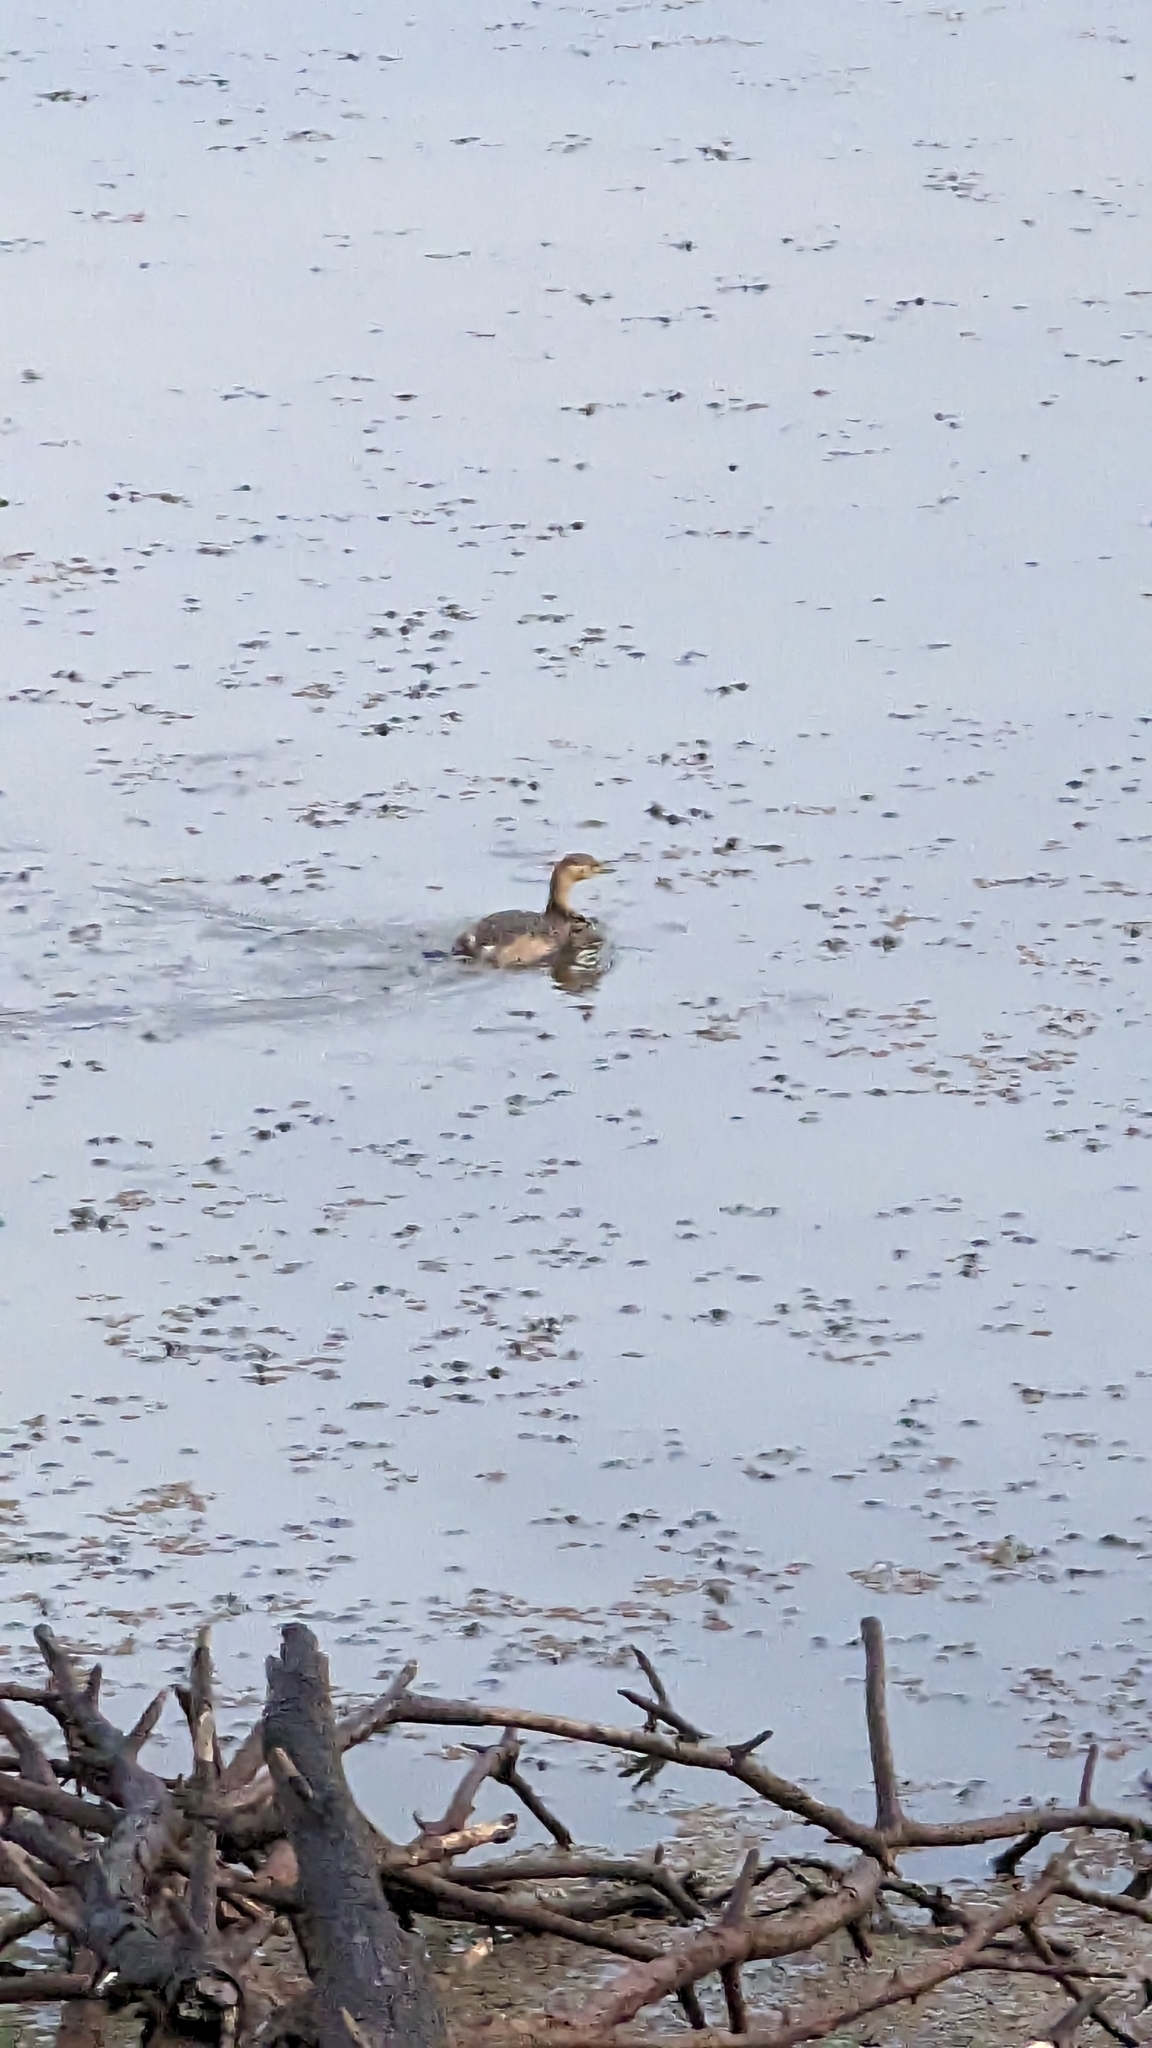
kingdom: Animalia
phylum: Chordata
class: Aves
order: Podicipediformes
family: Podicipedidae
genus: Tachybaptus
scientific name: Tachybaptus novaehollandiae
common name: Australasian grebe
